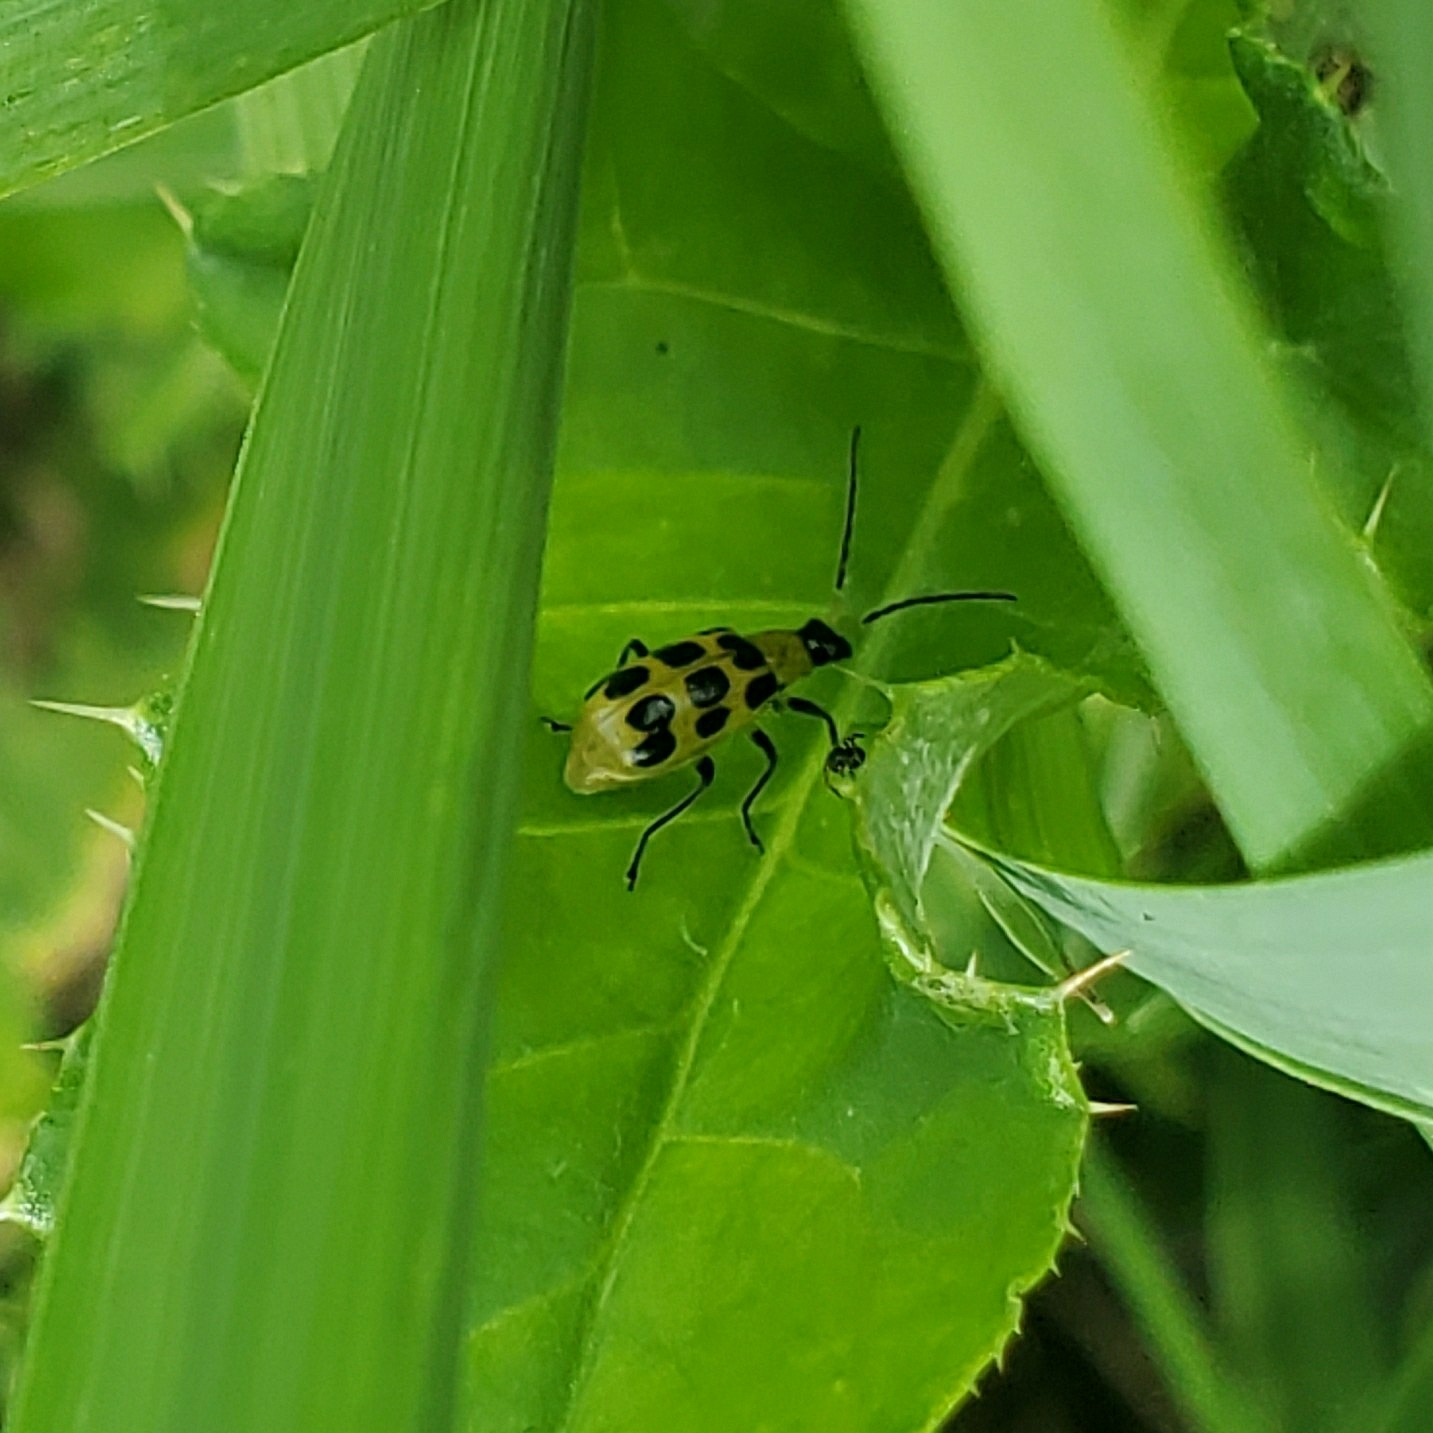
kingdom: Animalia
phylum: Arthropoda
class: Insecta
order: Coleoptera
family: Chrysomelidae
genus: Diabrotica
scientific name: Diabrotica undecimpunctata
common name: Spotted cucumber beetle
